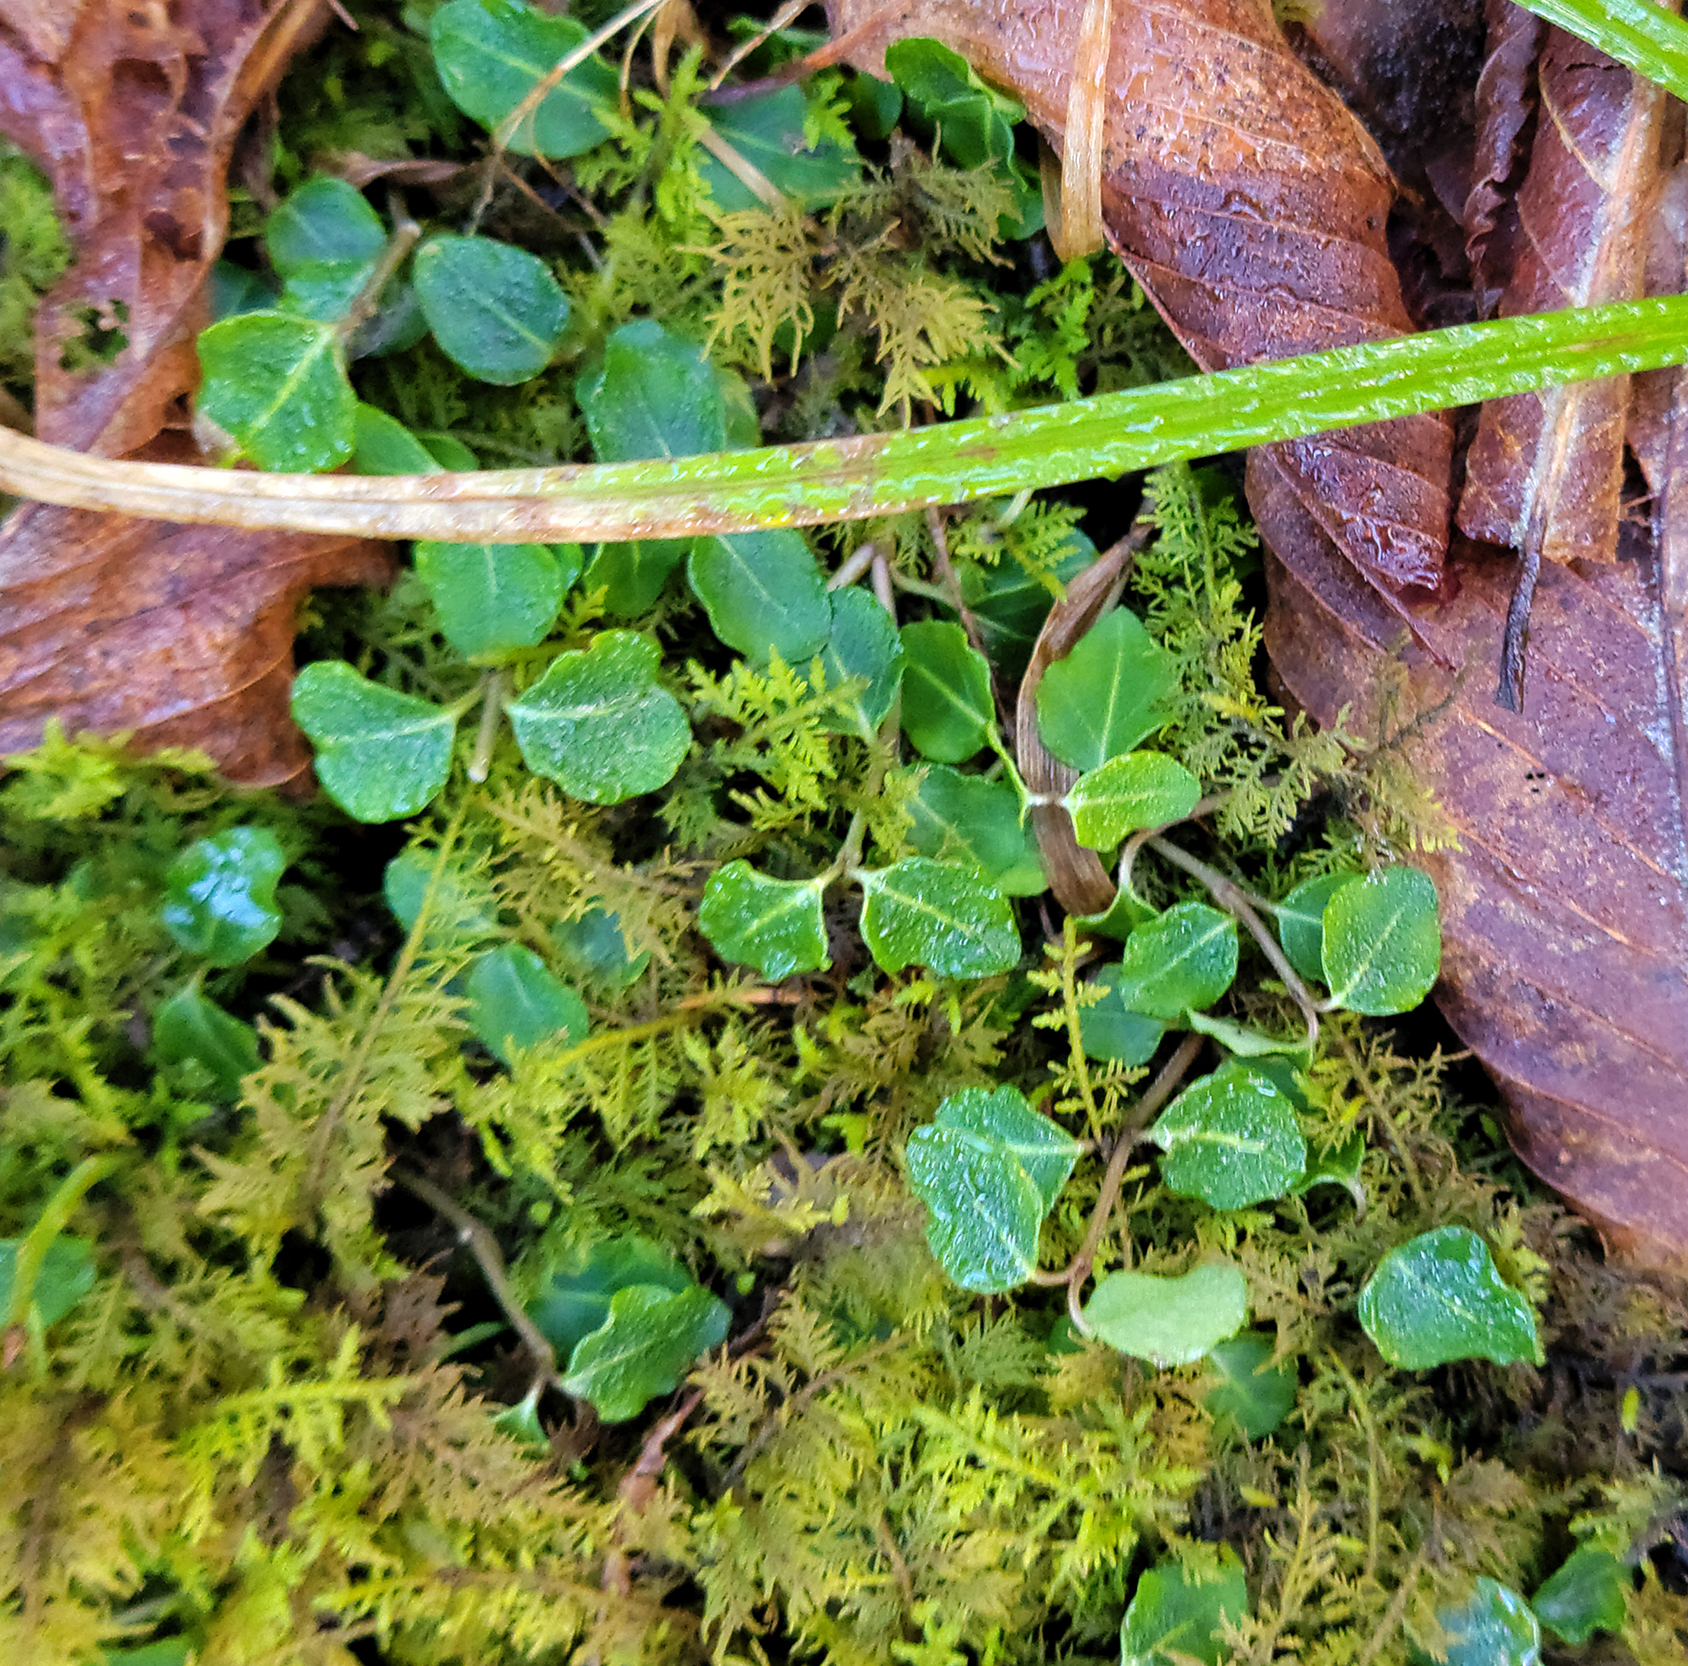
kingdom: Plantae
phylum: Tracheophyta
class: Magnoliopsida
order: Gentianales
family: Rubiaceae
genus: Mitchella
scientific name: Mitchella repens
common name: Partridge-berry
